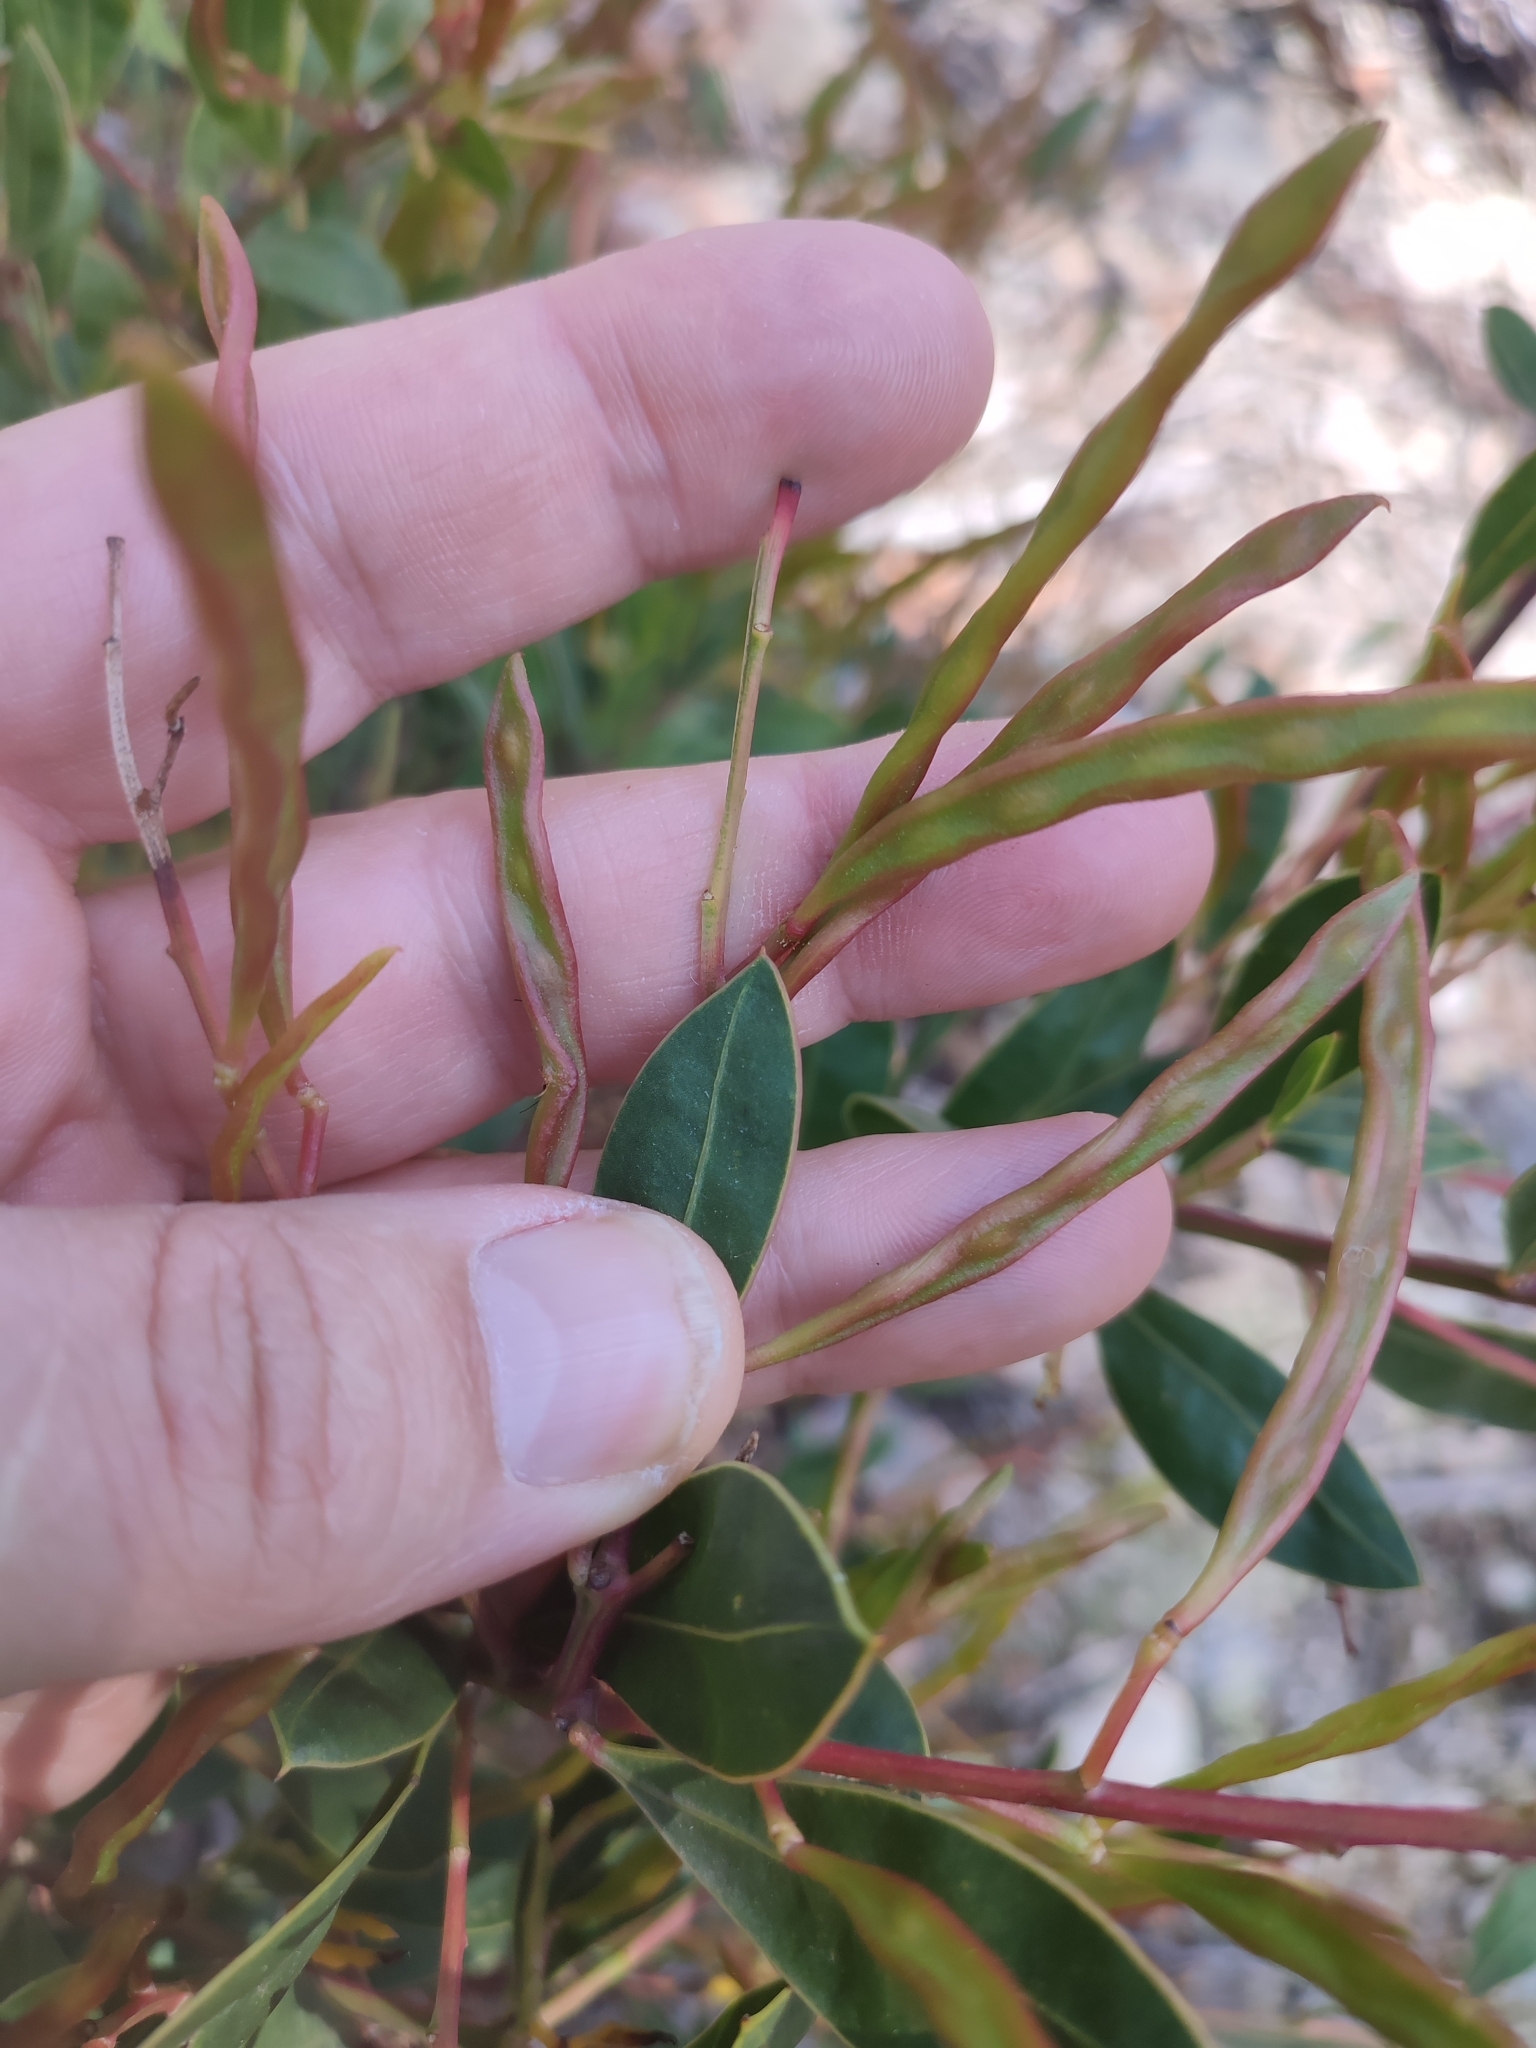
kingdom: Plantae
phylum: Tracheophyta
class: Magnoliopsida
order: Fabales
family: Fabaceae
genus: Acacia
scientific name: Acacia myrtifolia
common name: Myrtle wattle
